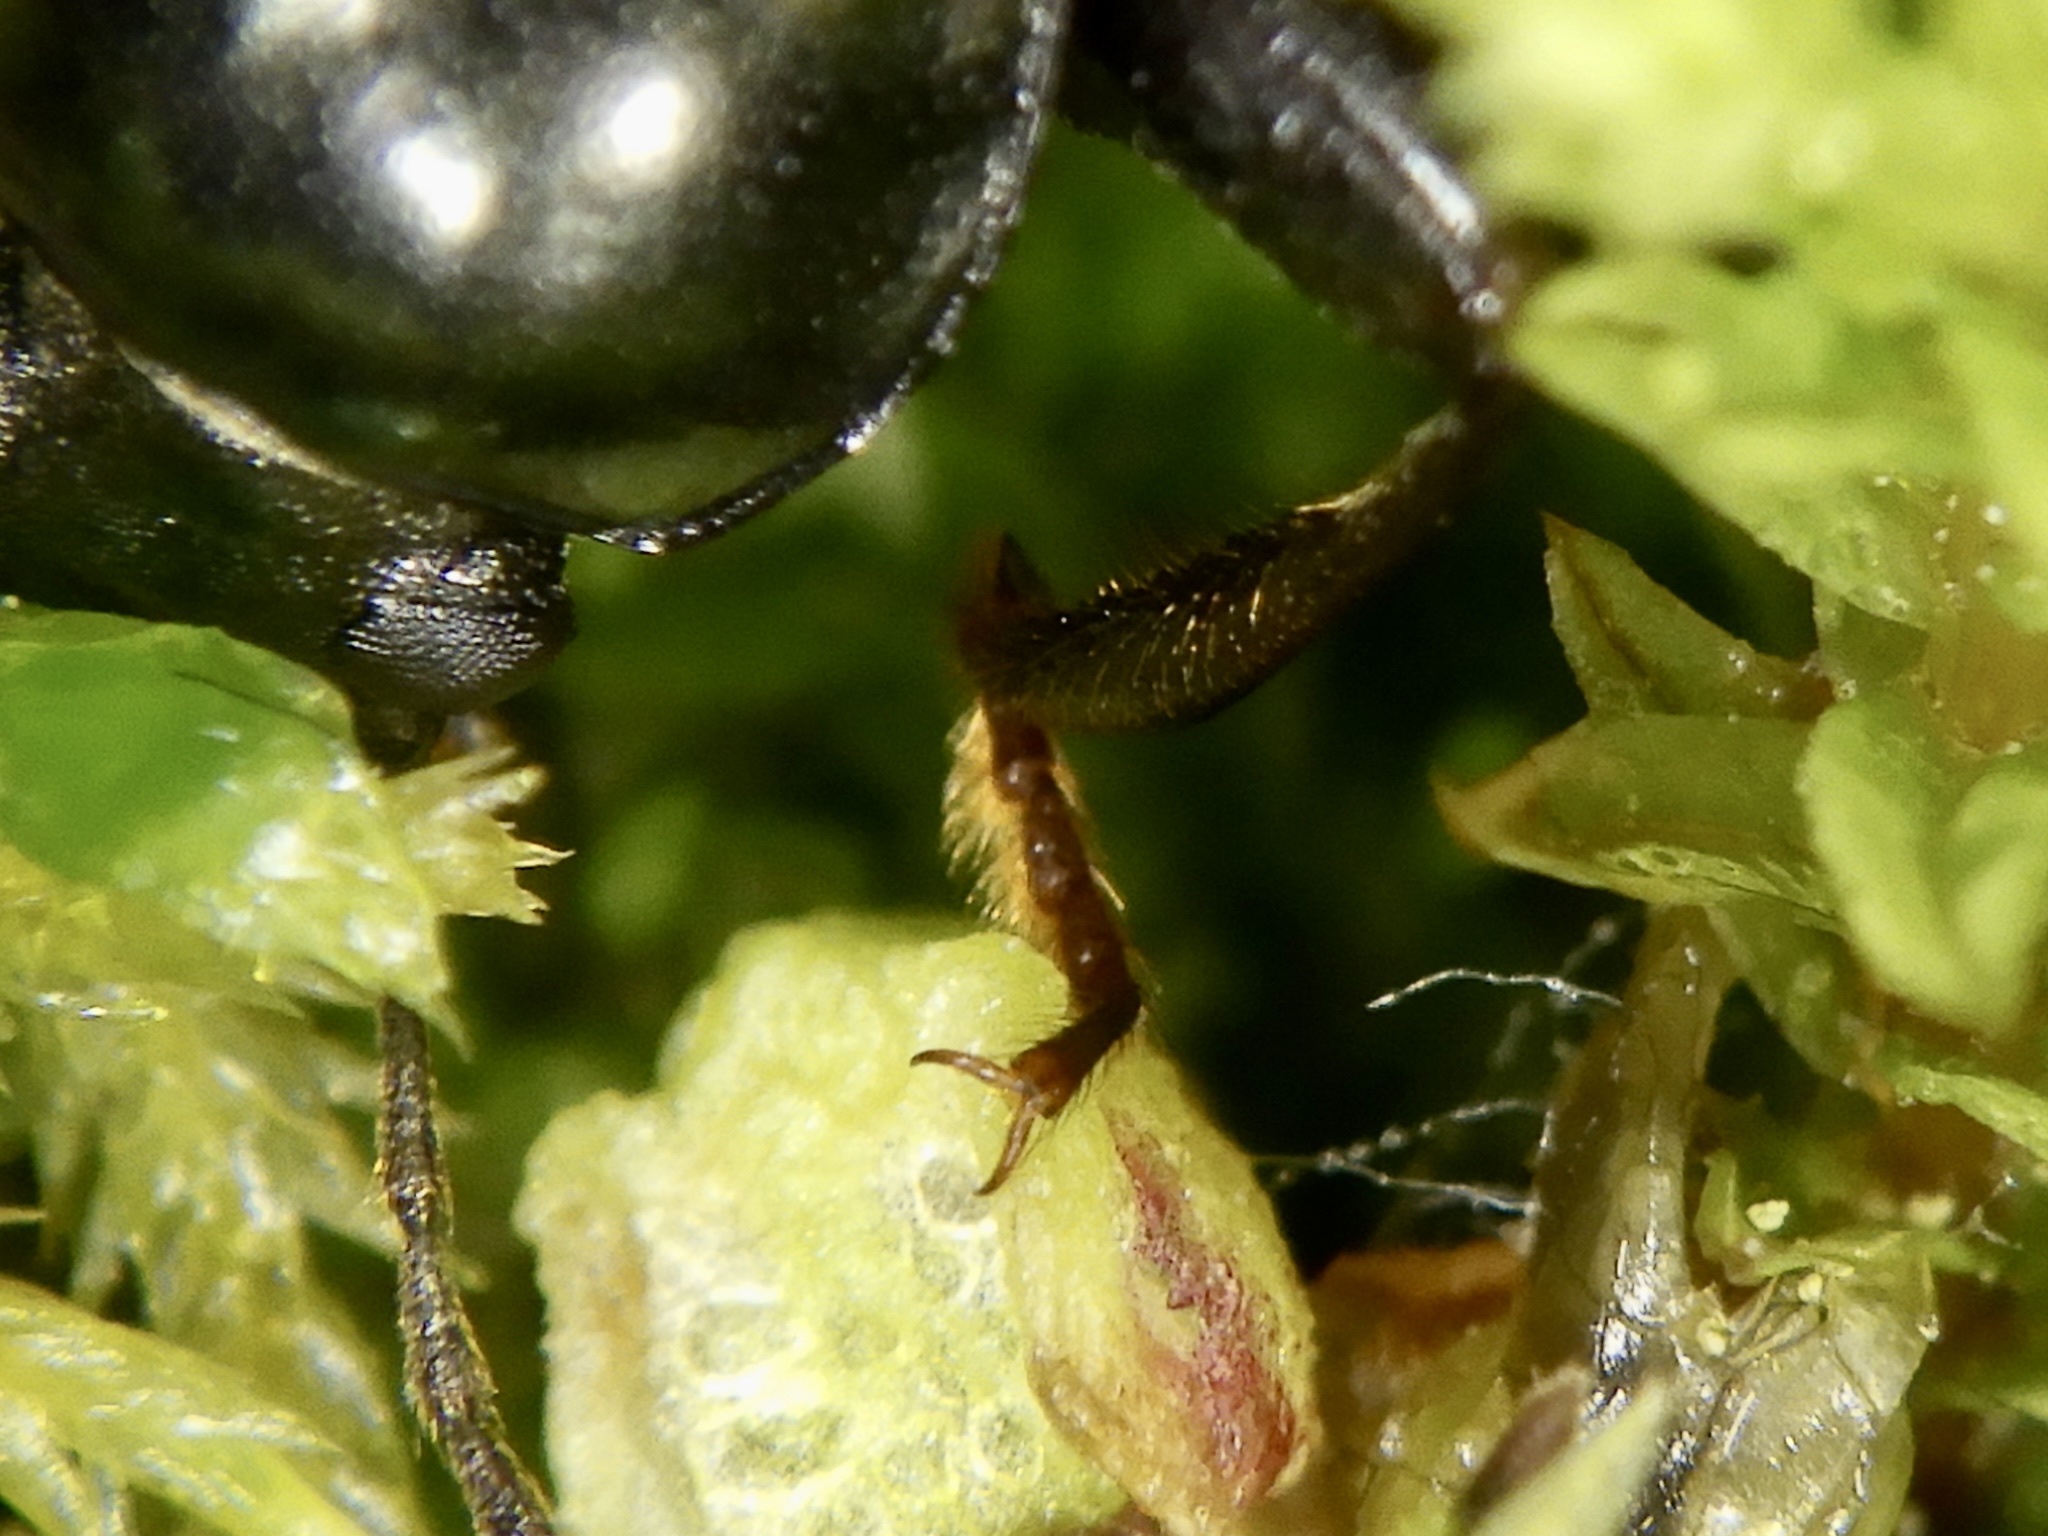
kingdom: Animalia
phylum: Arthropoda
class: Insecta
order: Coleoptera
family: Tenebrionidae
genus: Asialassus
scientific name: Asialassus
